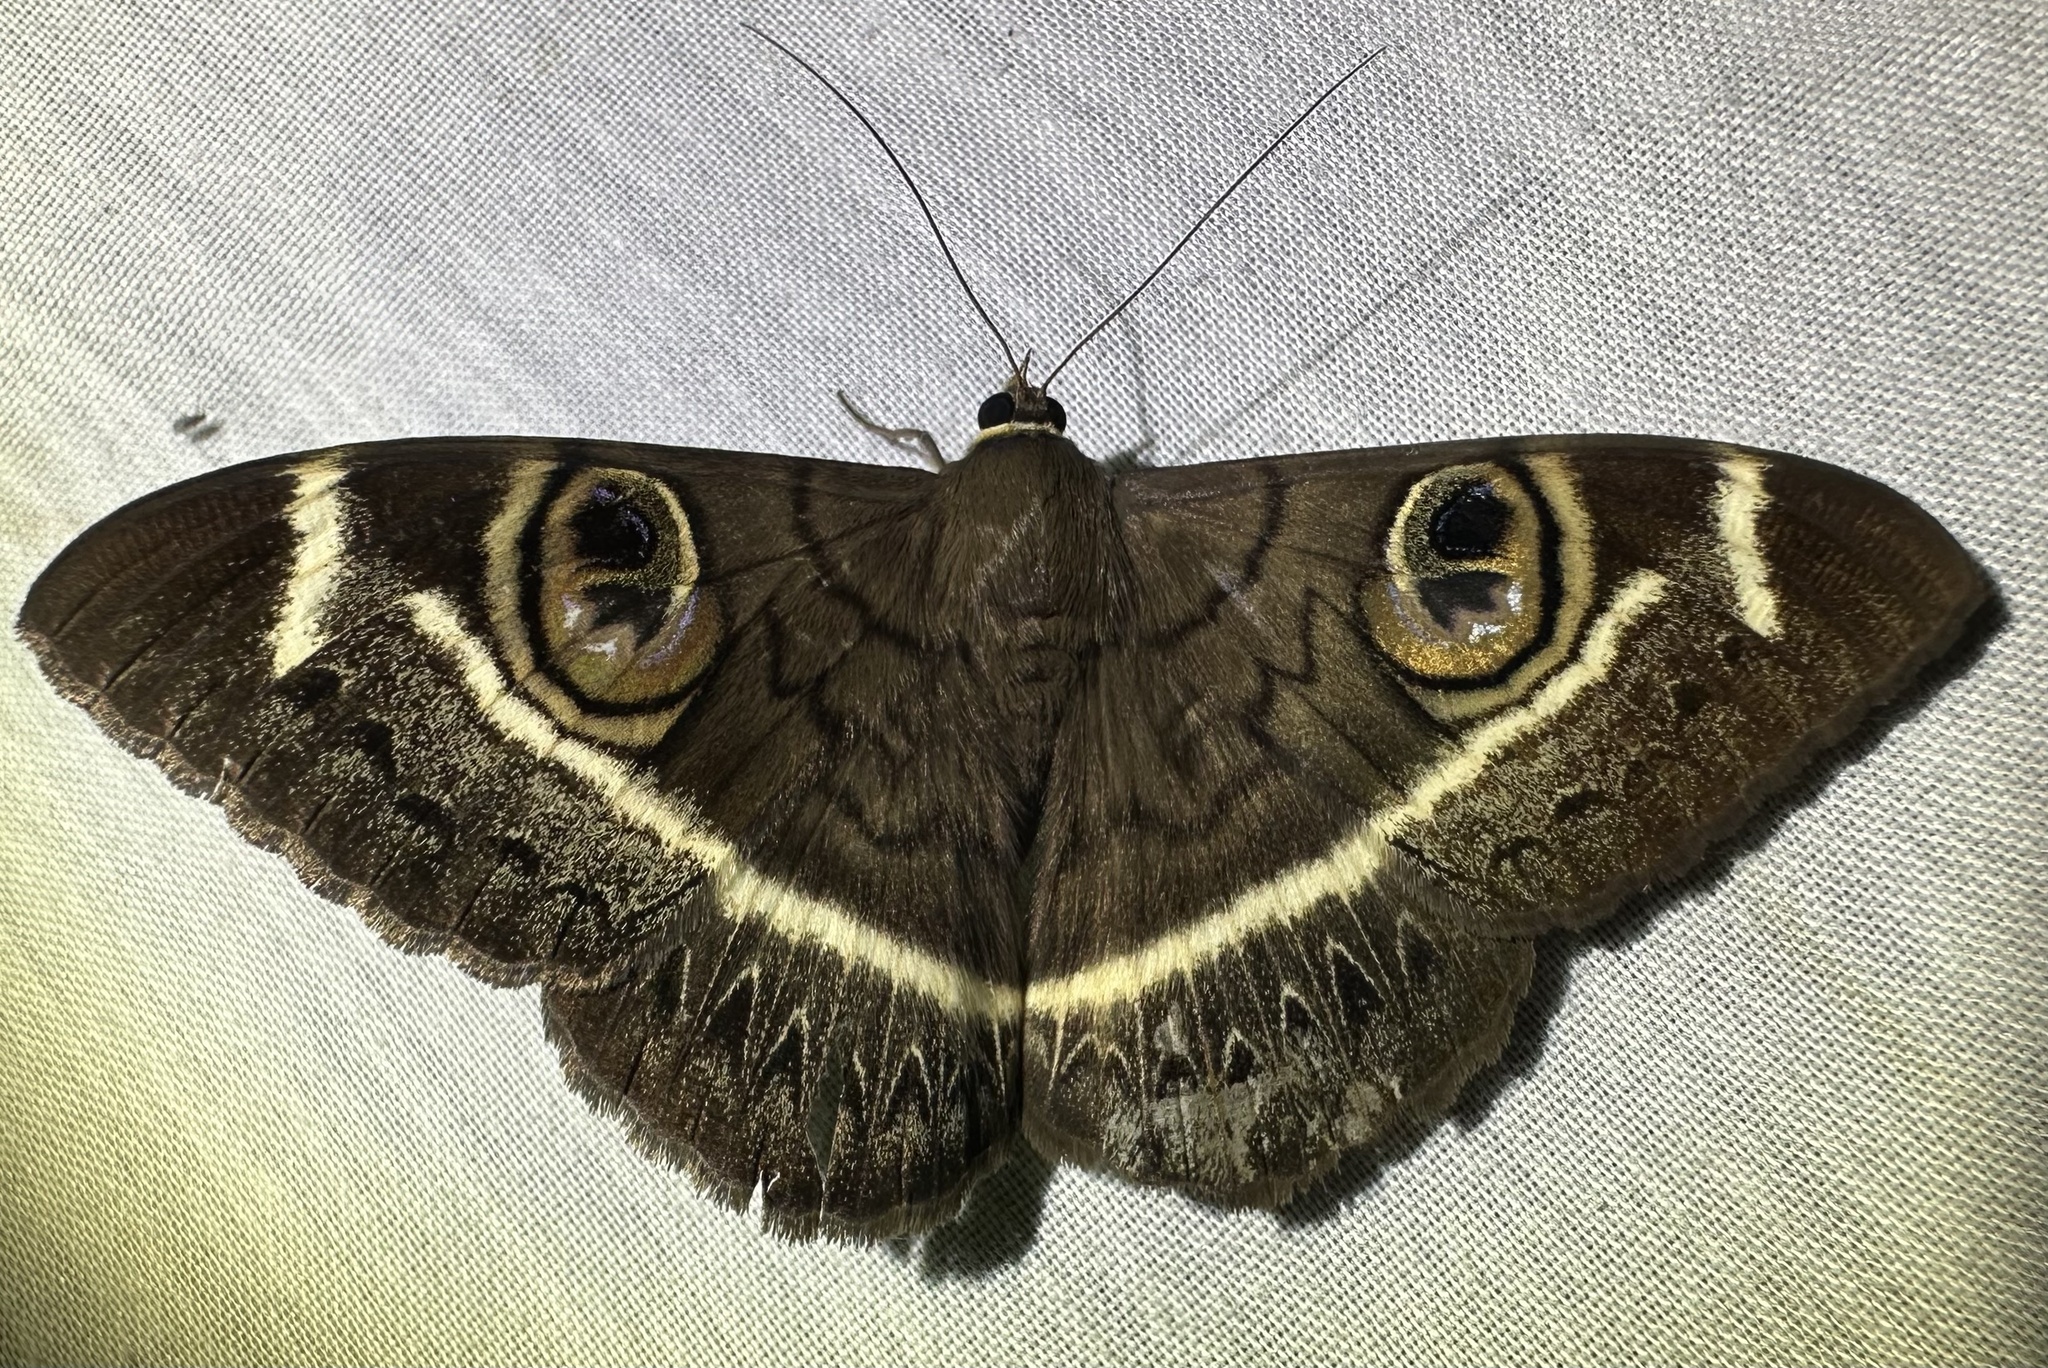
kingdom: Animalia
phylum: Arthropoda
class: Insecta
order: Lepidoptera
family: Erebidae
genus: Cyligramma
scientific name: Cyligramma latona
